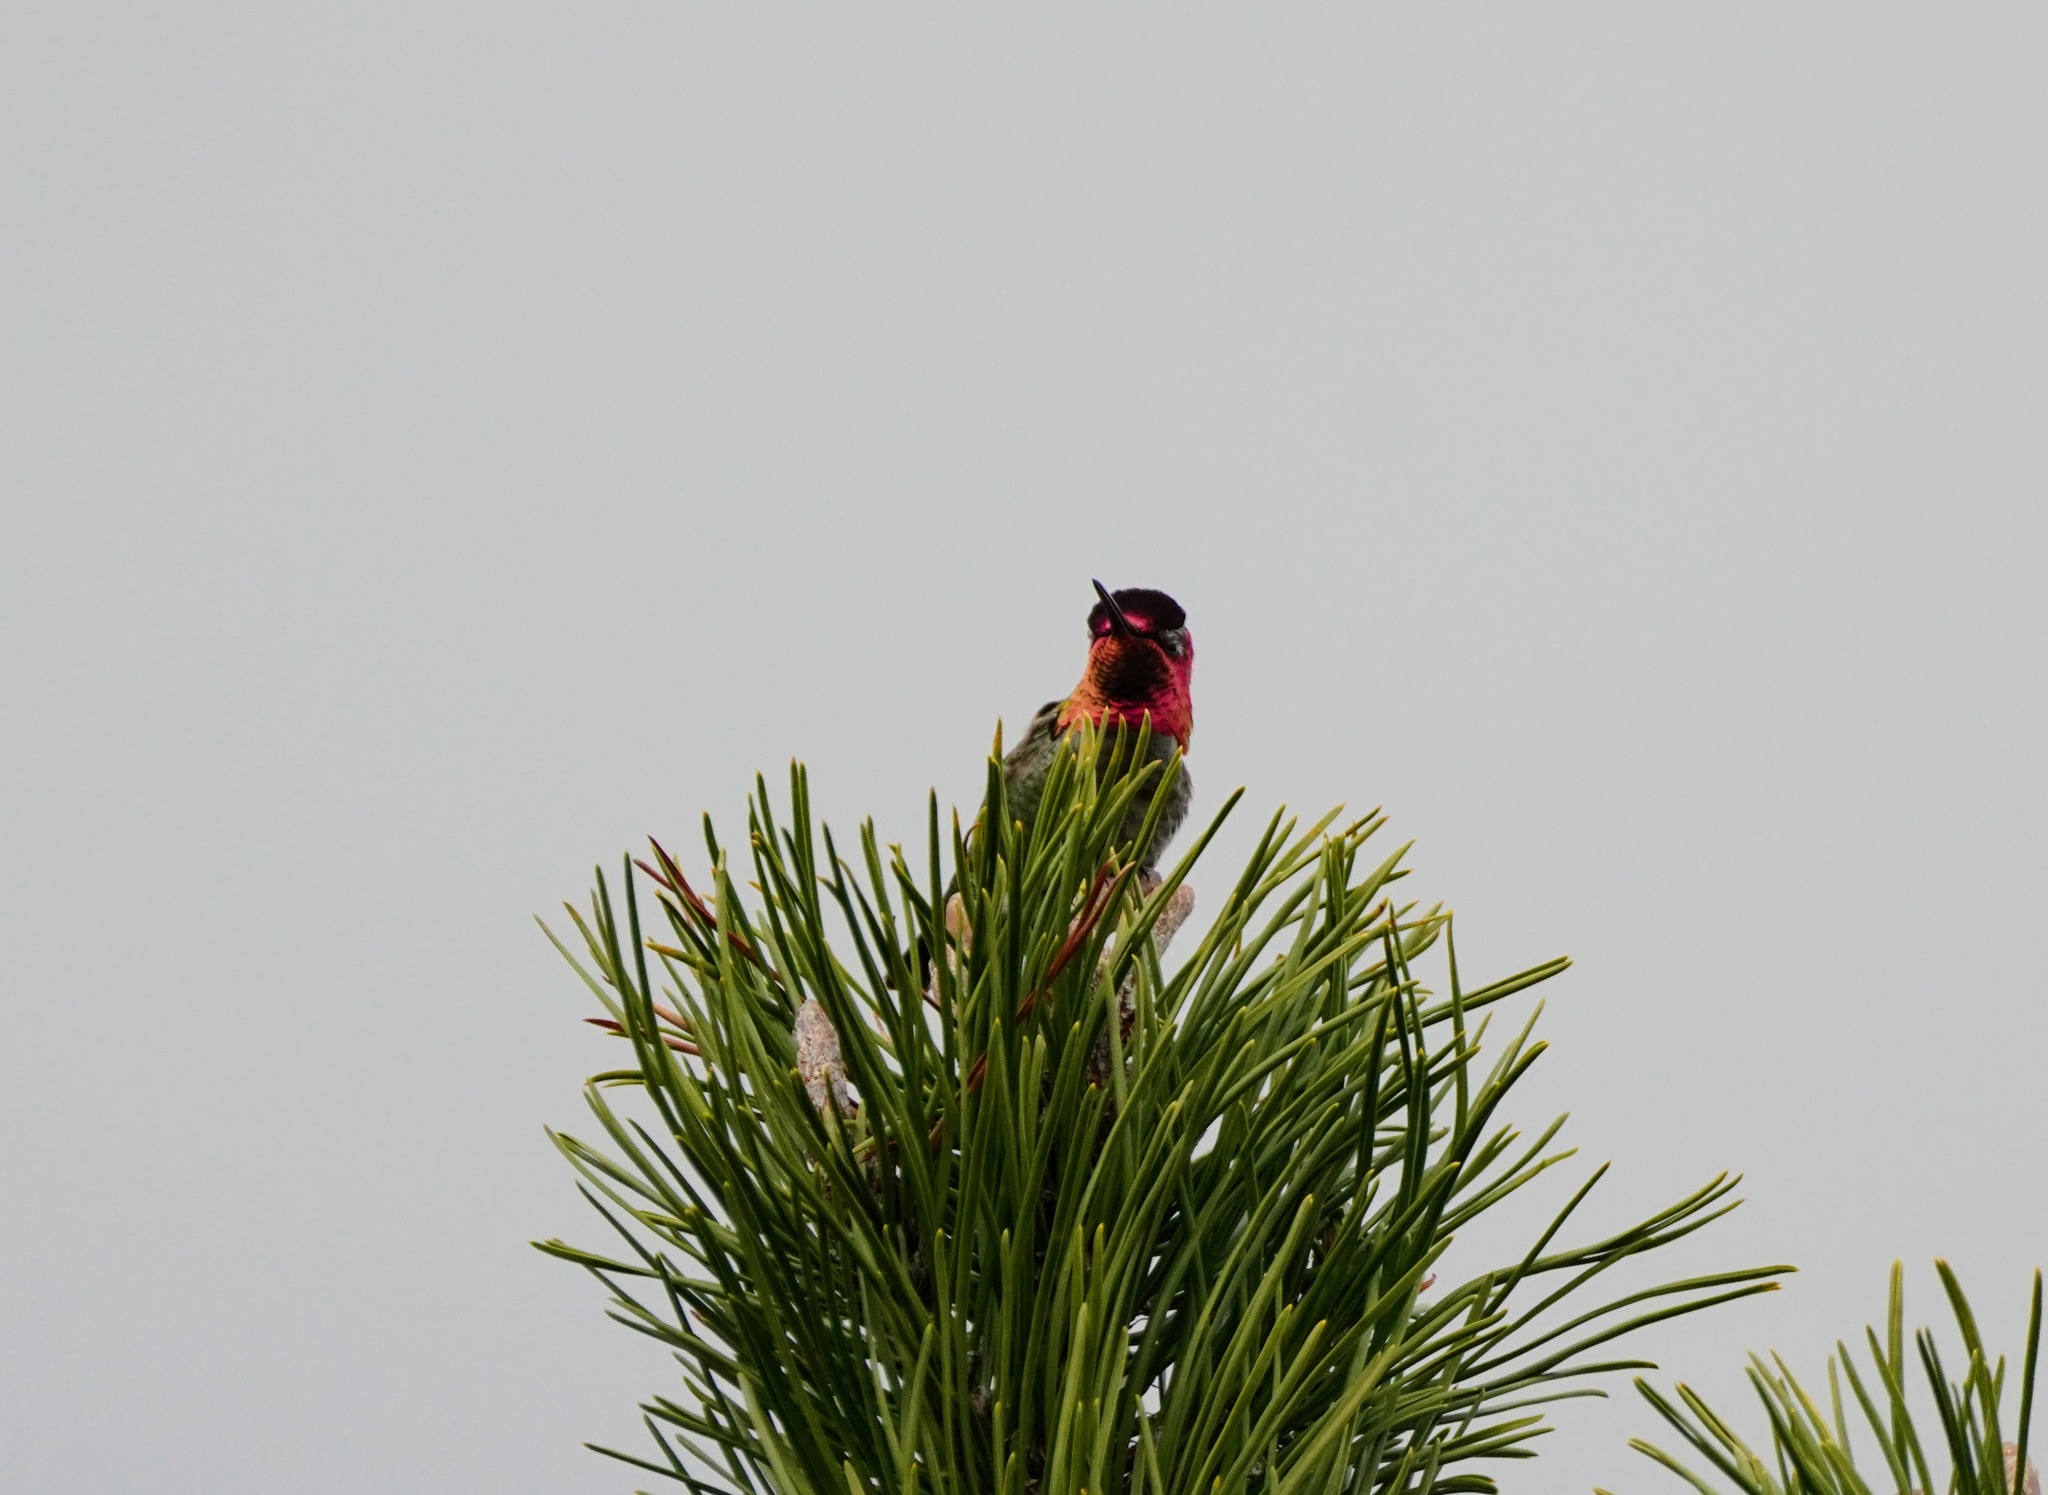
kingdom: Animalia
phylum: Chordata
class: Aves
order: Apodiformes
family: Trochilidae
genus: Calypte
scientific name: Calypte anna
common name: Anna's hummingbird
